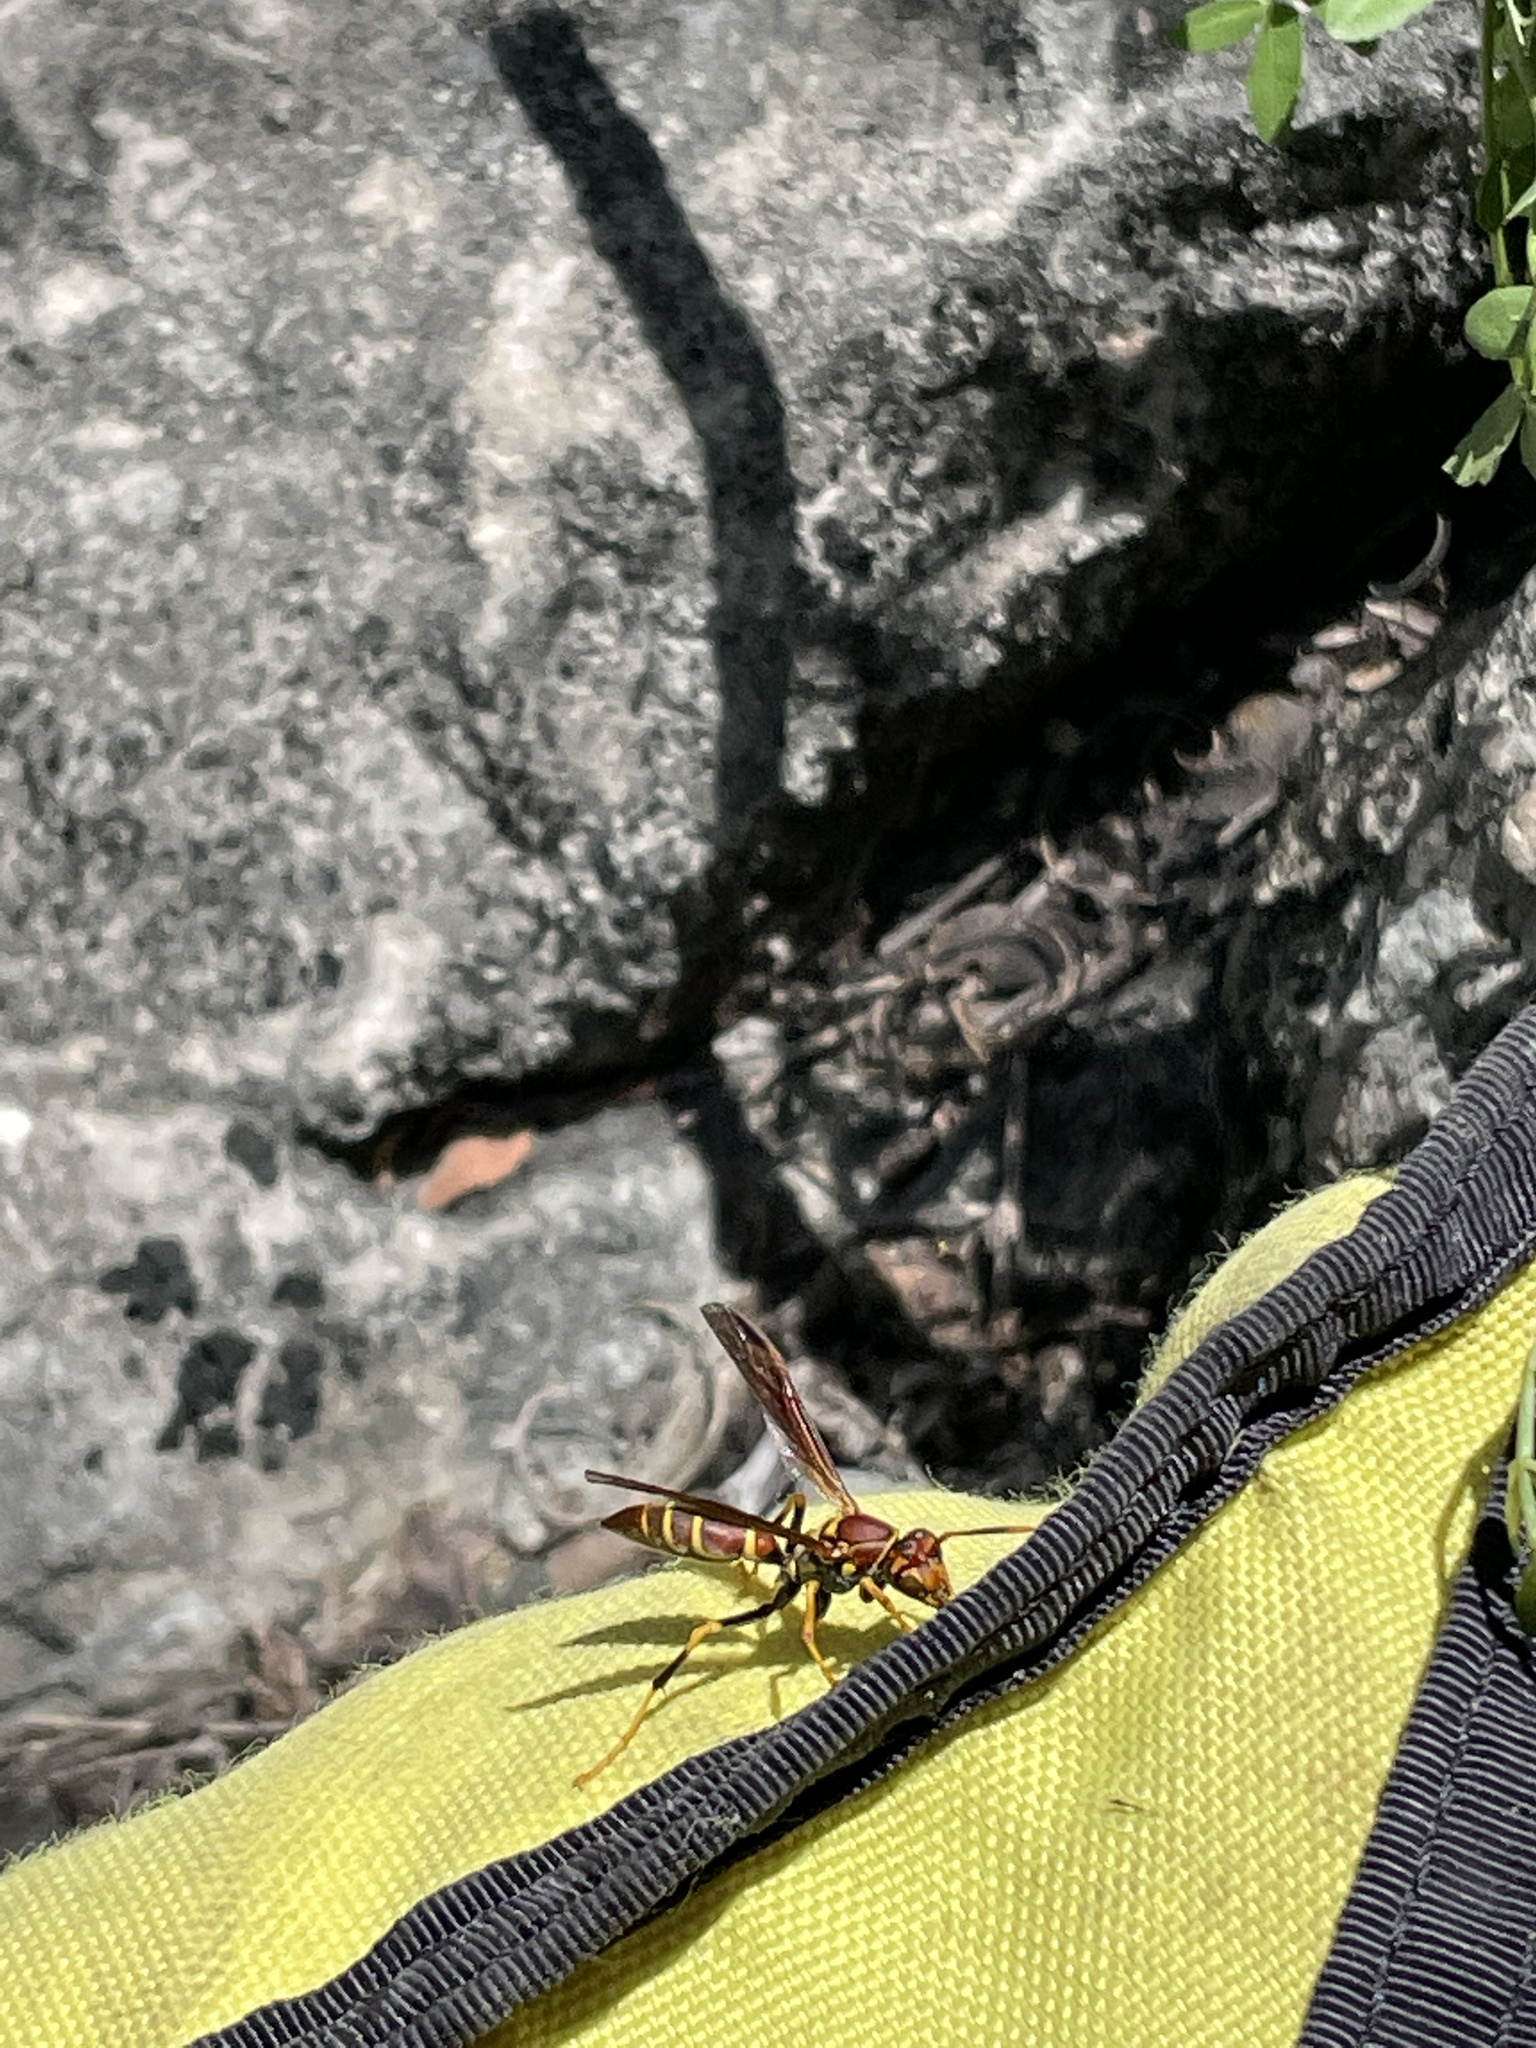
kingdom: Animalia
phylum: Arthropoda
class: Insecta
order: Hymenoptera
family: Eumenidae
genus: Polistes
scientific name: Polistes instabilis
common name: Unstable paper wasp
